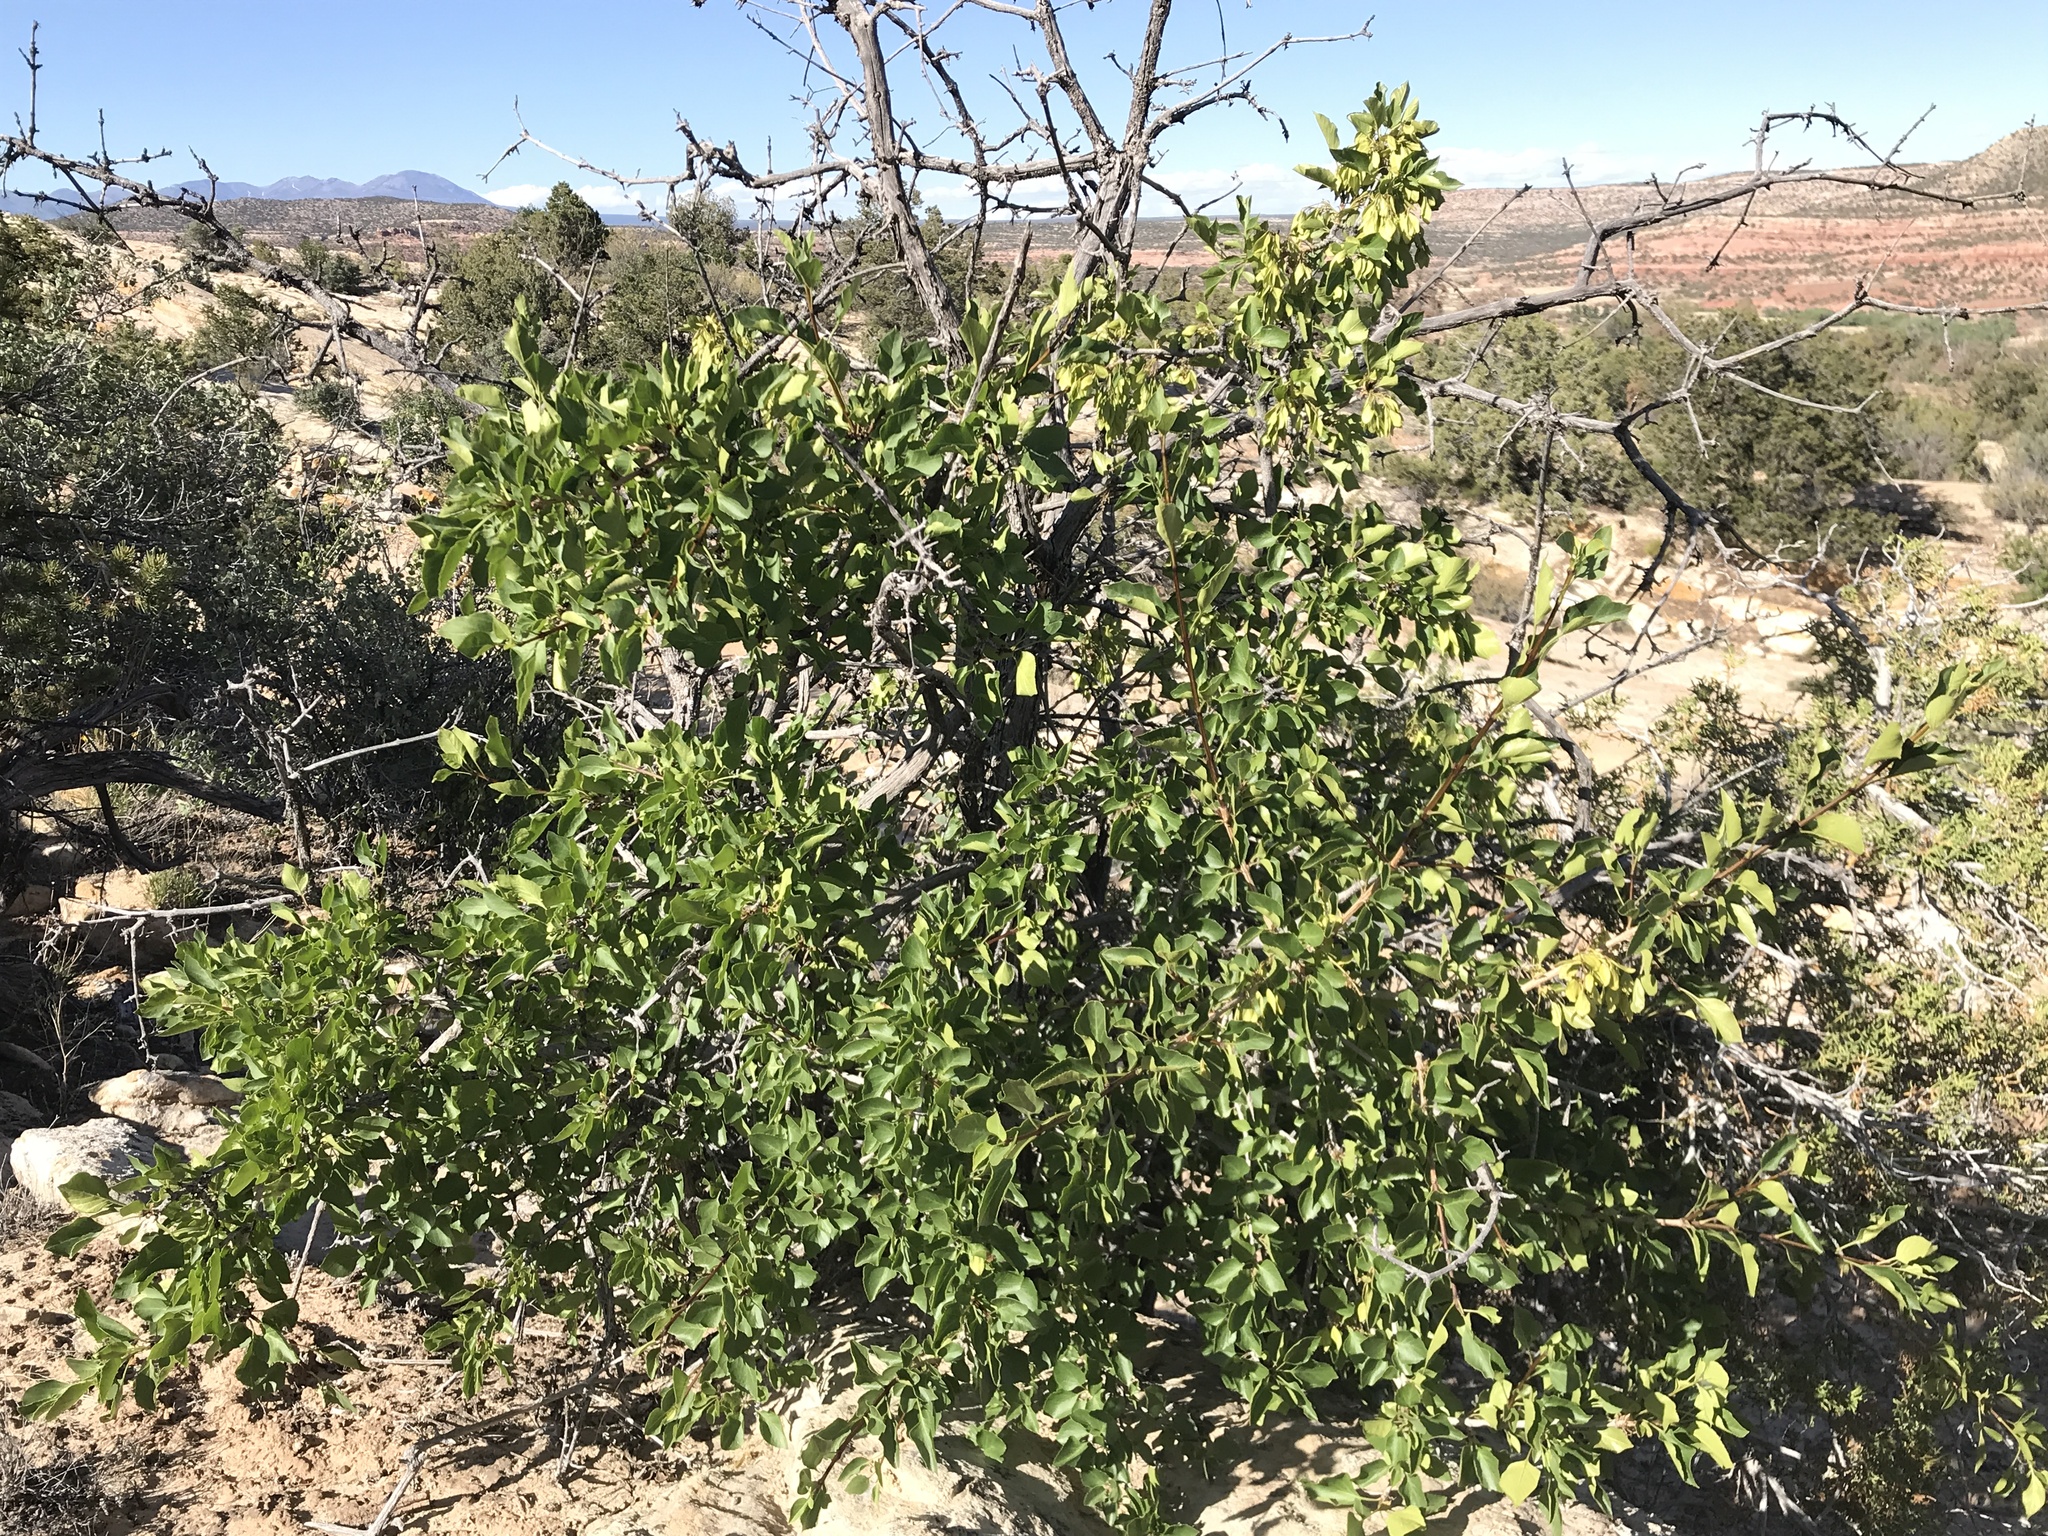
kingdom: Plantae
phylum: Tracheophyta
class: Magnoliopsida
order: Lamiales
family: Oleaceae
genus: Fraxinus
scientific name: Fraxinus anomala
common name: Utah ash
